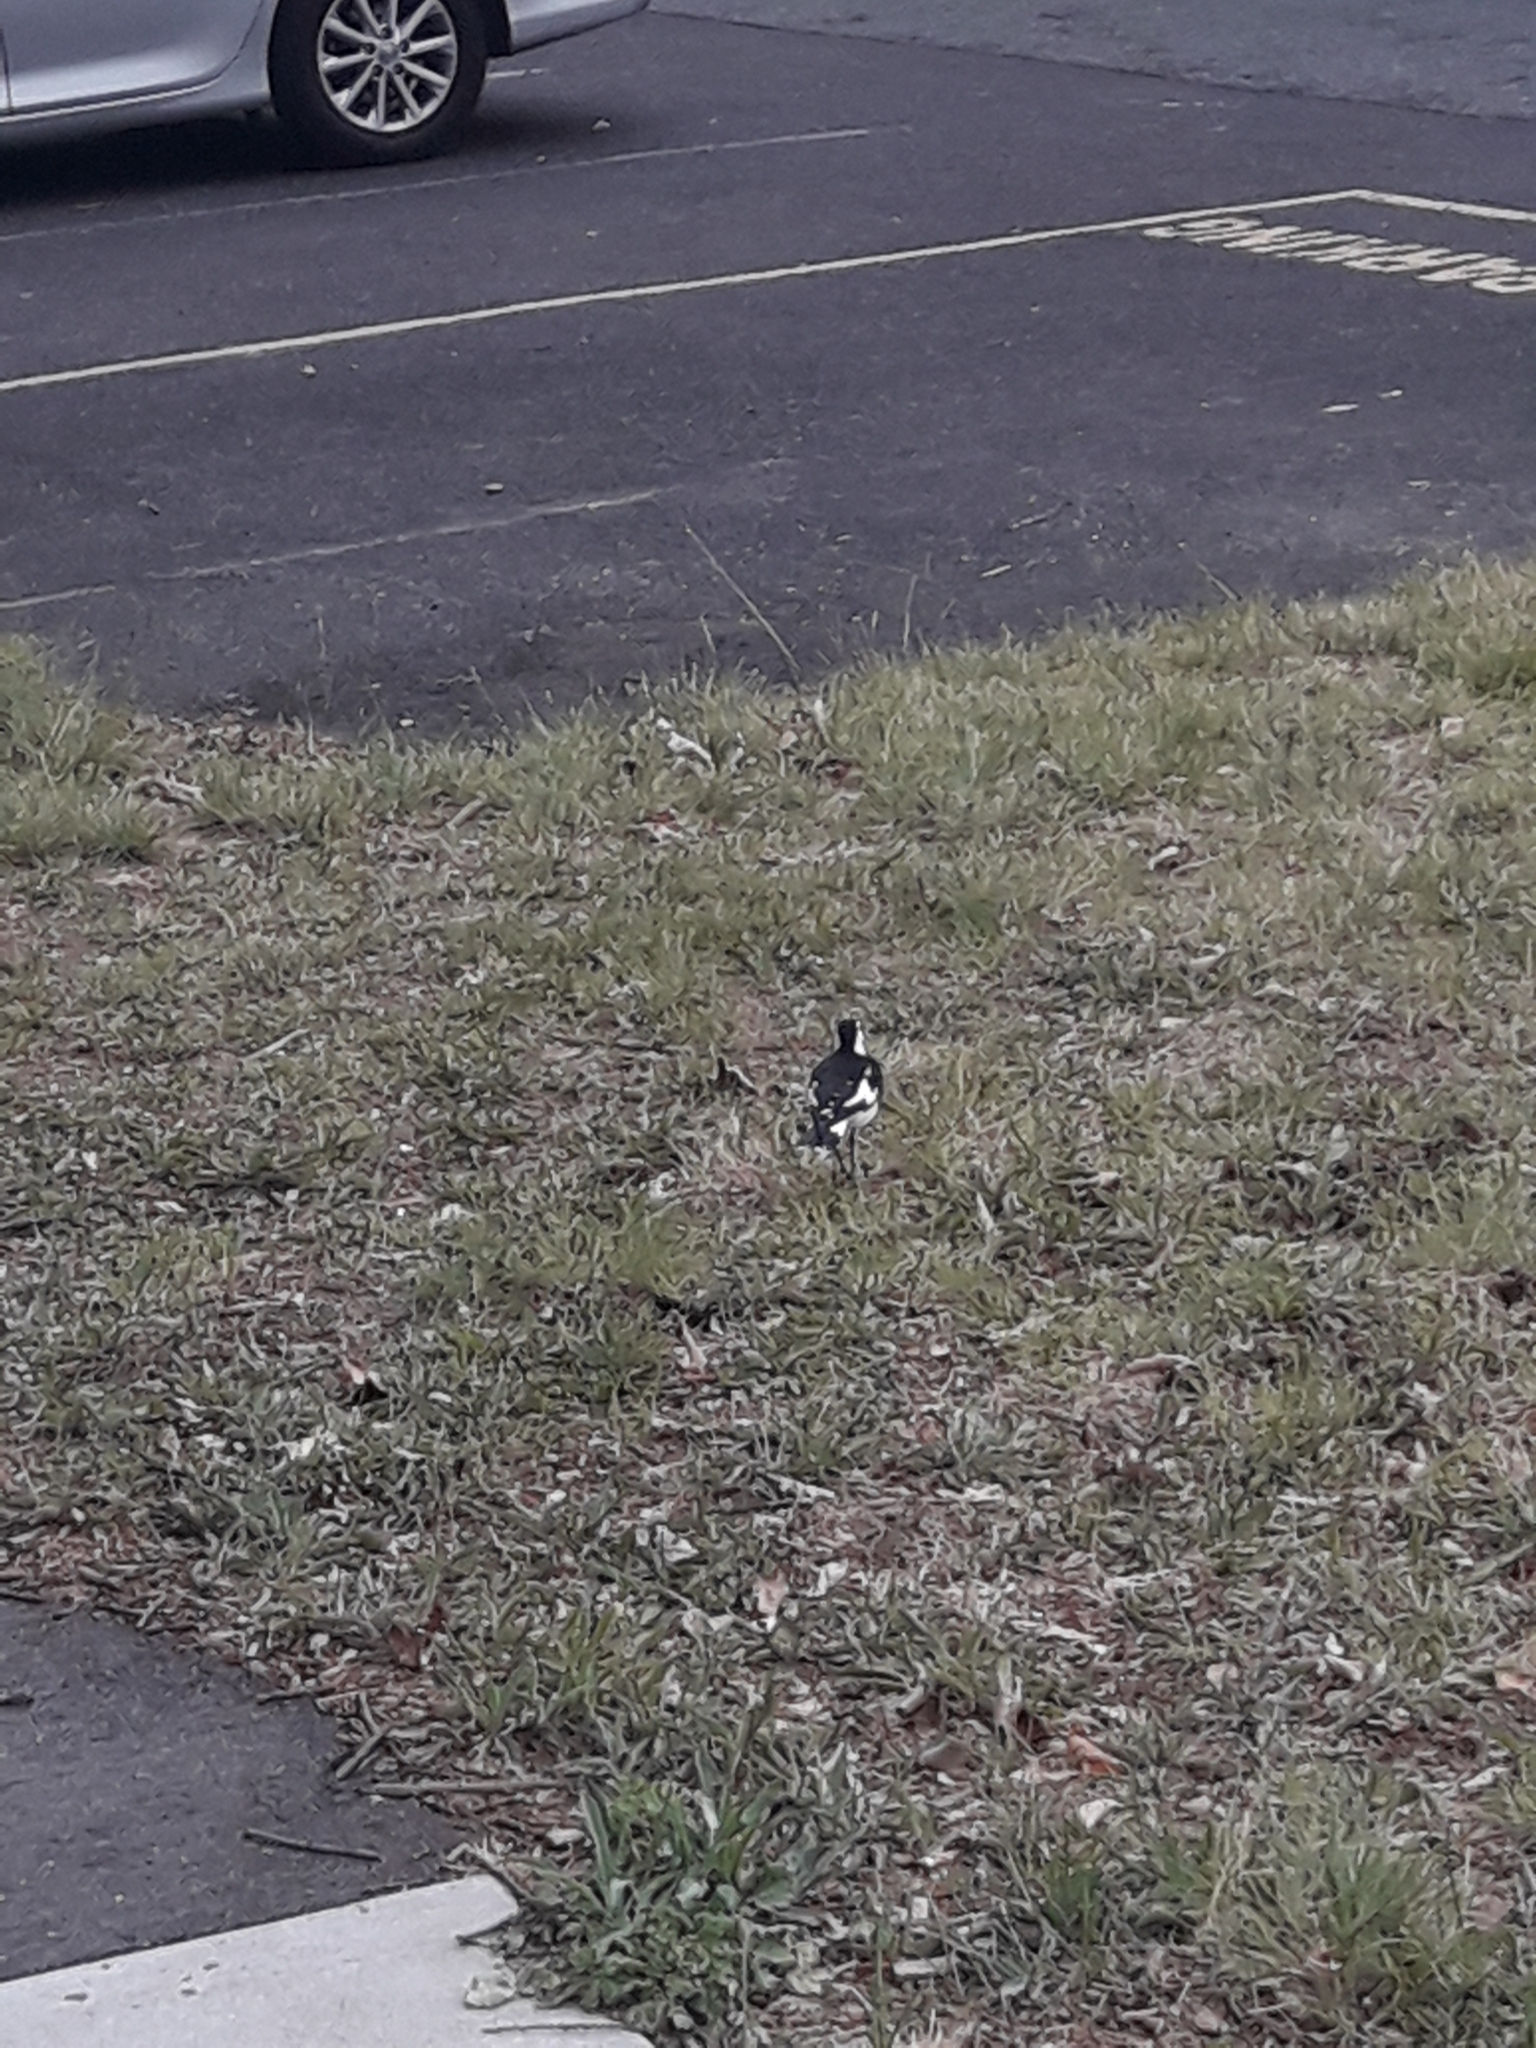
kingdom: Animalia
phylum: Chordata
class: Aves
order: Passeriformes
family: Monarchidae
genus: Grallina
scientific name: Grallina cyanoleuca
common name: Magpie-lark
